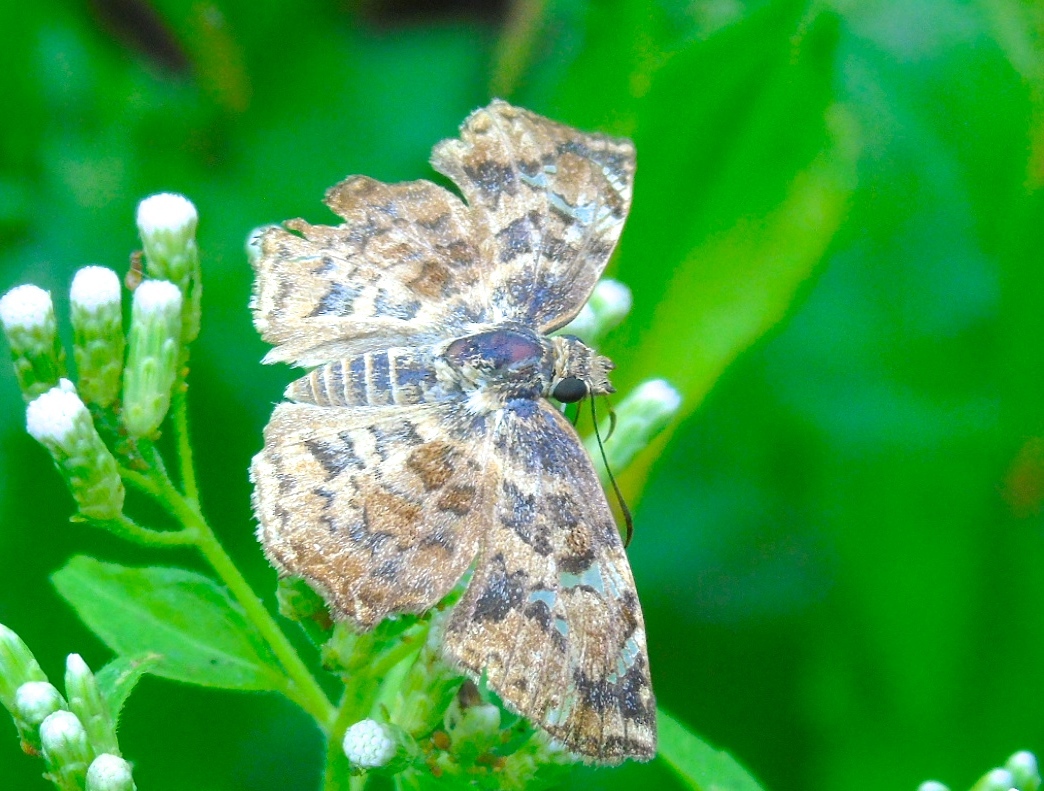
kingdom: Animalia
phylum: Arthropoda
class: Insecta
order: Lepidoptera
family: Hesperiidae
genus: Antigonus
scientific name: Antigonus erosus
